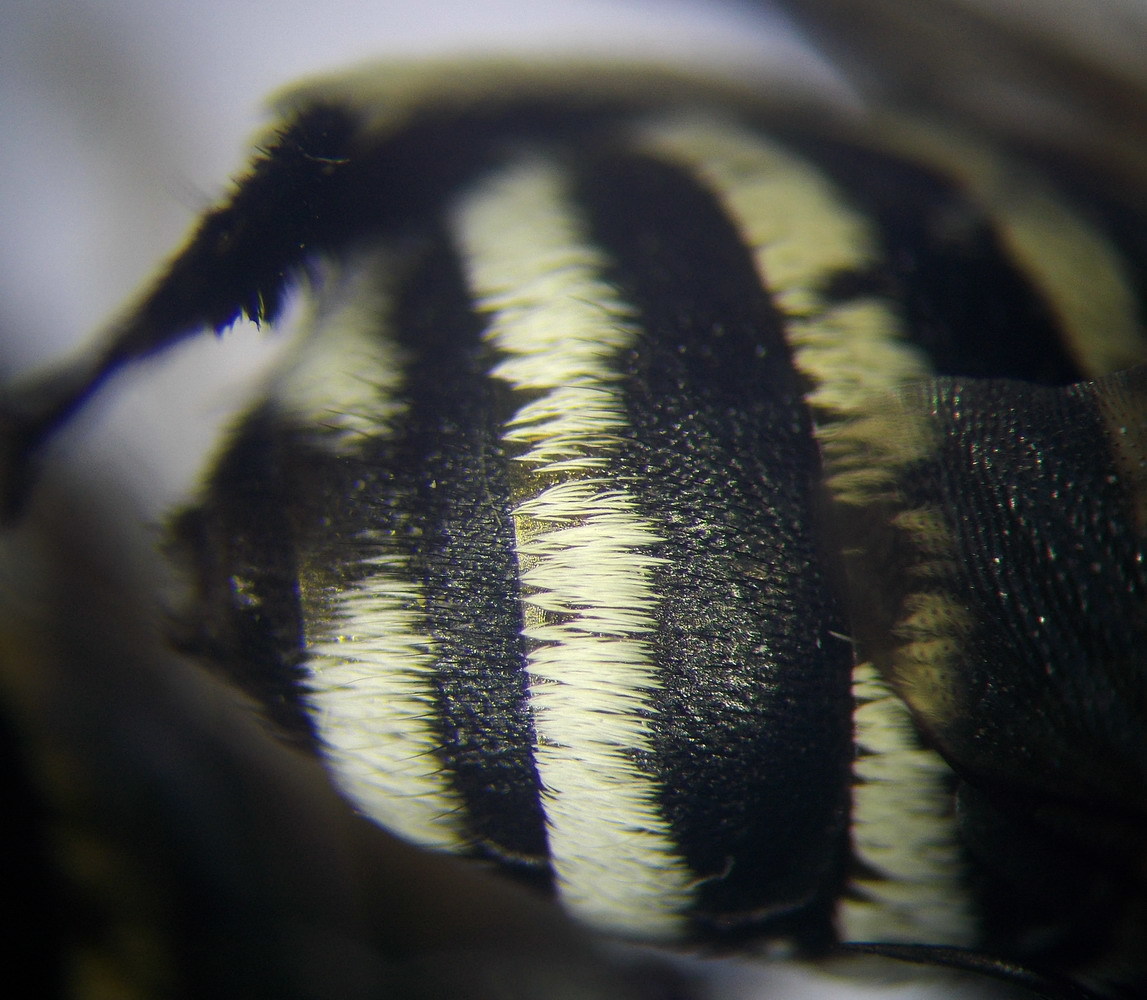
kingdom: Animalia
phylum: Arthropoda
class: Insecta
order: Hymenoptera
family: Apidae
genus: Amegilla
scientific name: Amegilla quadrifasciata
